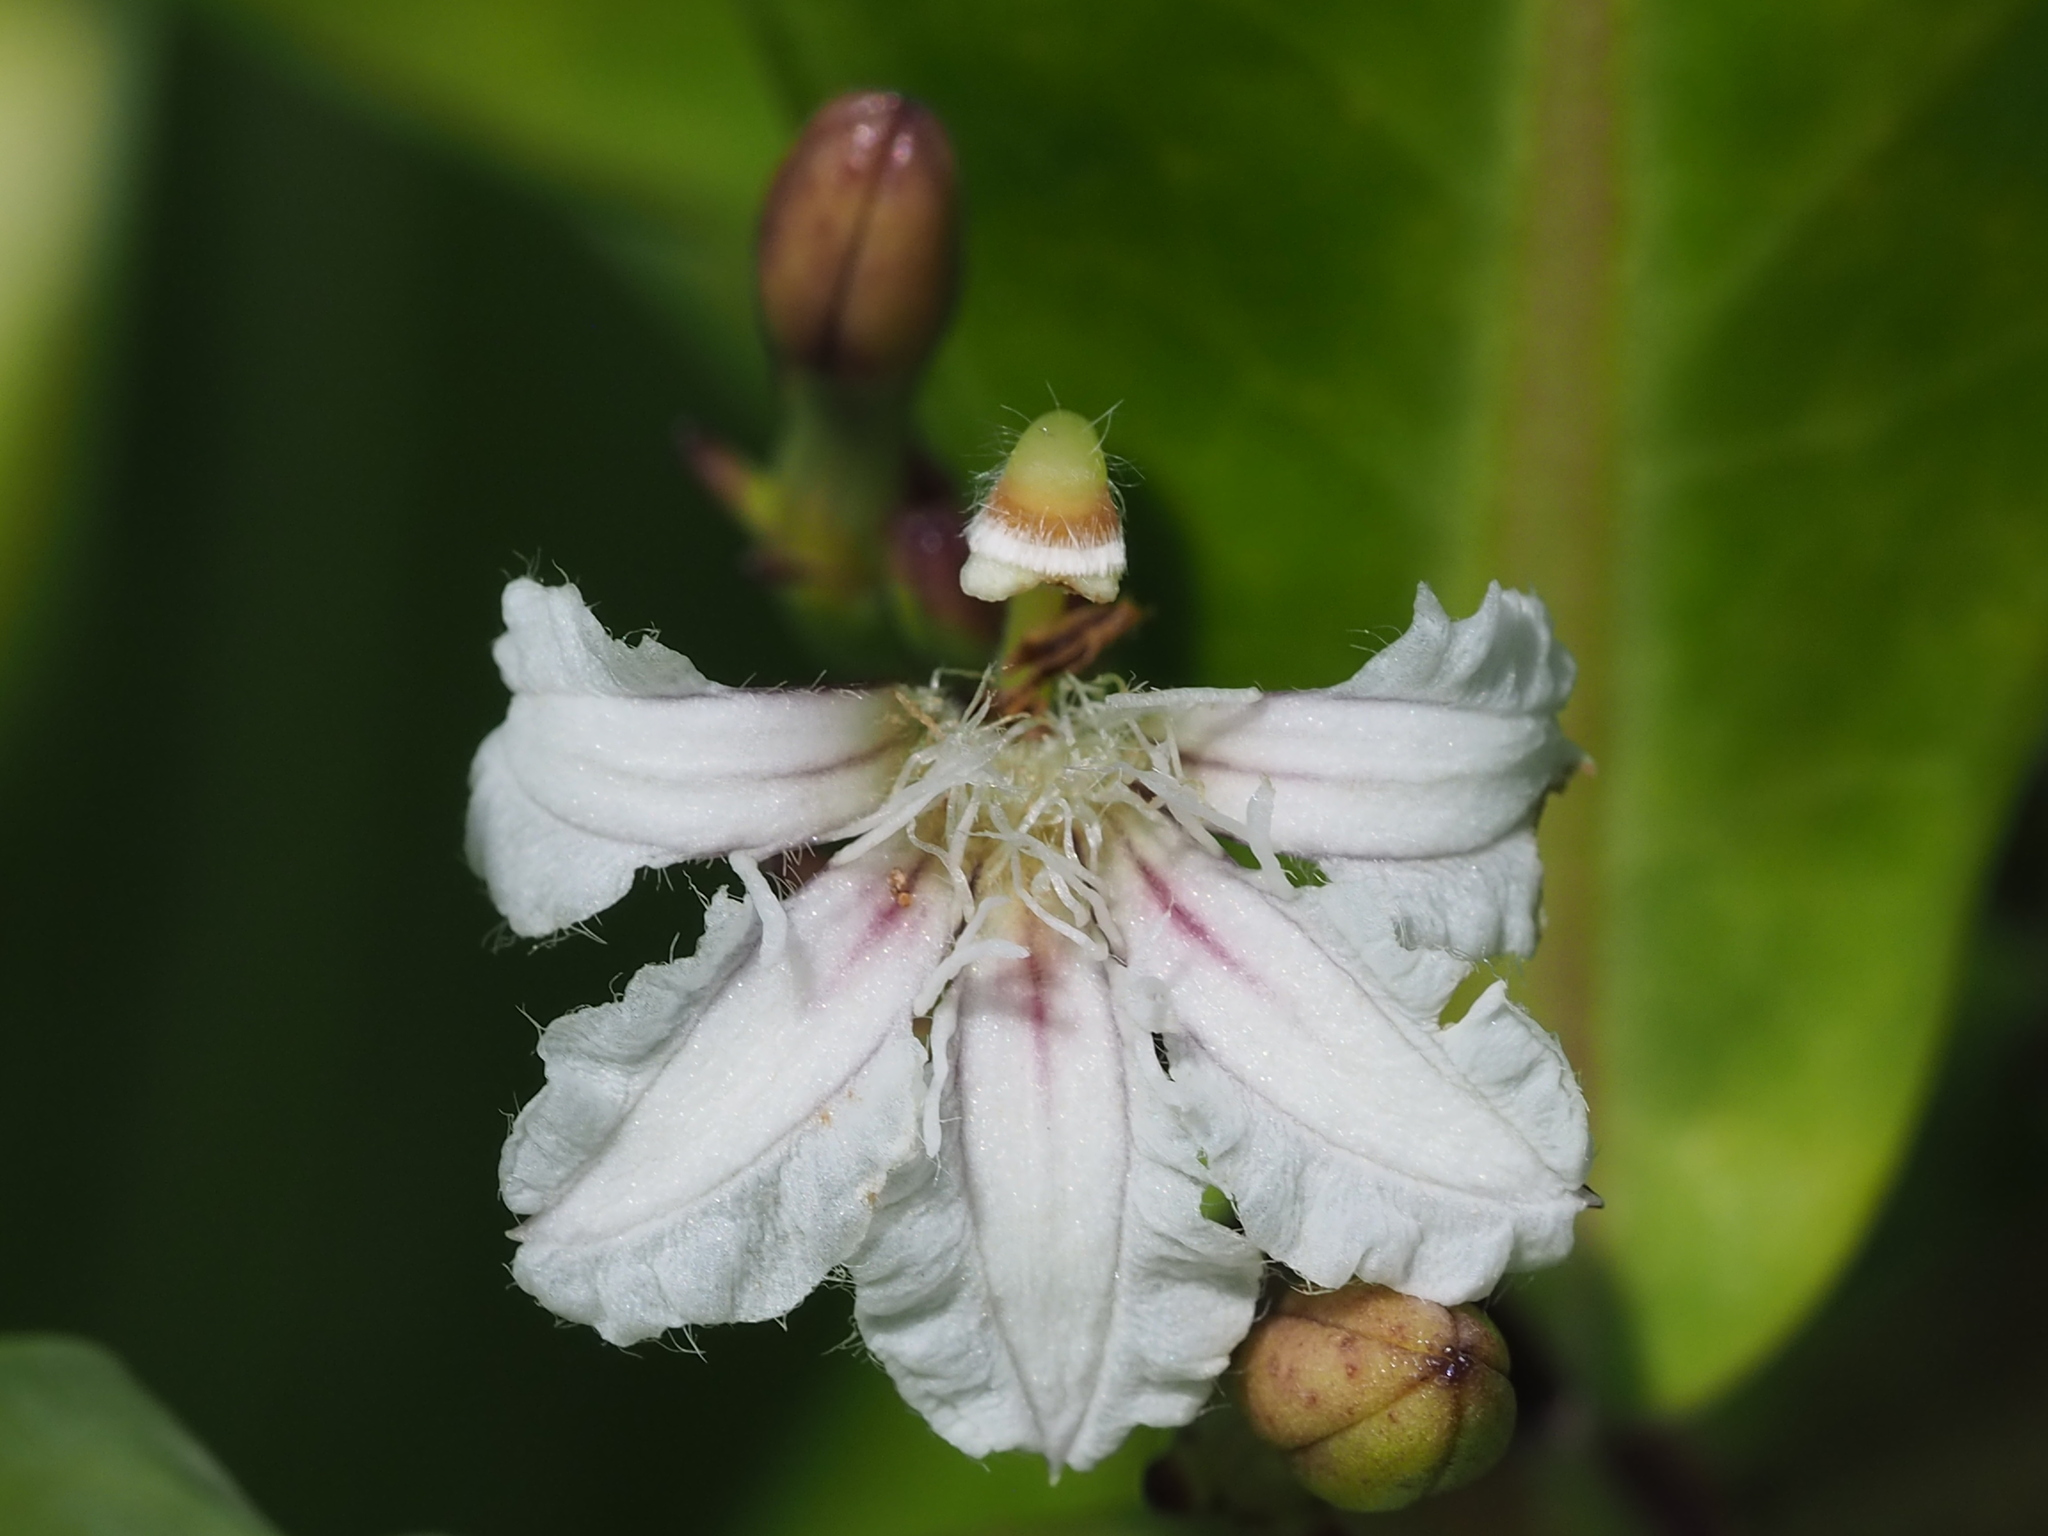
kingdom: Plantae
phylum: Tracheophyta
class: Magnoliopsida
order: Asterales
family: Goodeniaceae
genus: Scaevola
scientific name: Scaevola taccada
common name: Sea lettucetree
